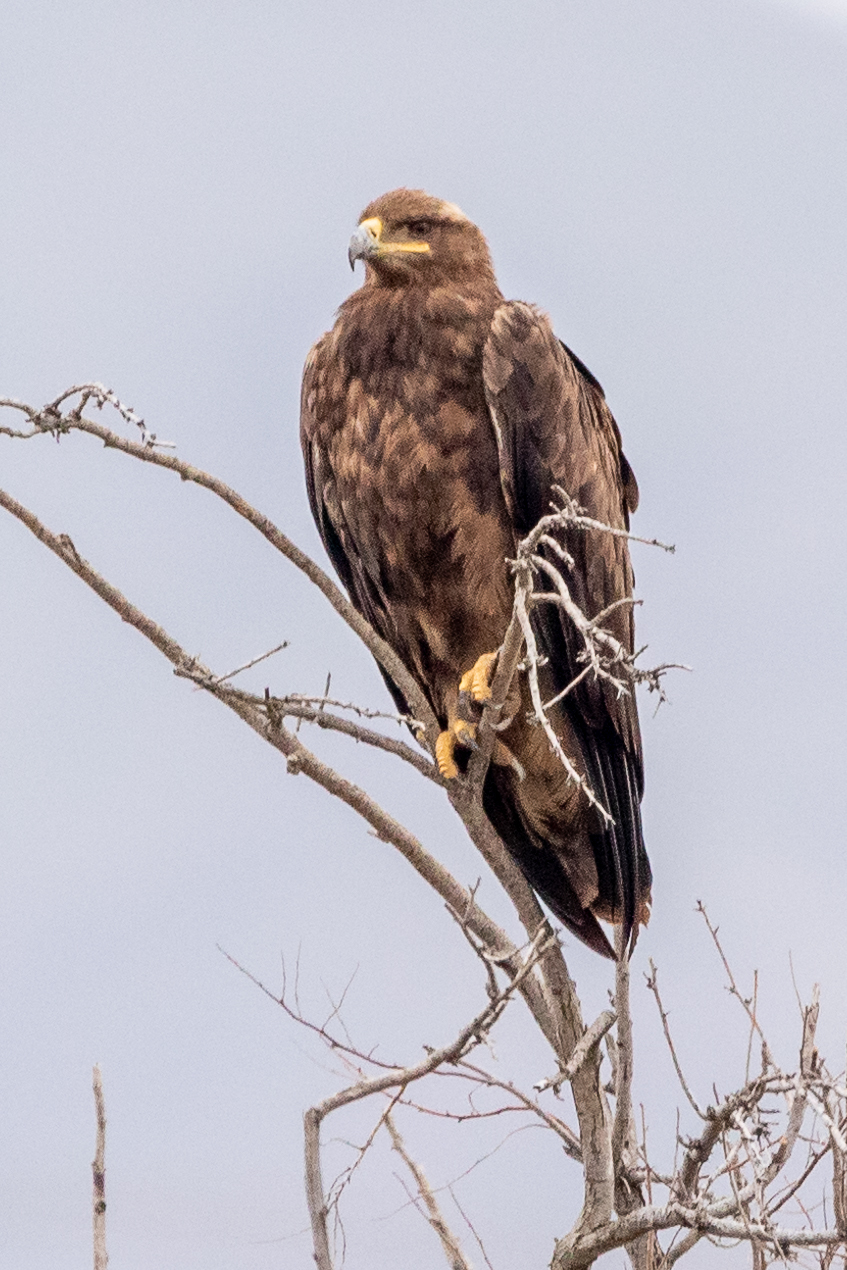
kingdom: Animalia
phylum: Chordata
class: Aves
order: Accipitriformes
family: Accipitridae
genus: Aquila
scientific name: Aquila nipalensis
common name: Steppe eagle
